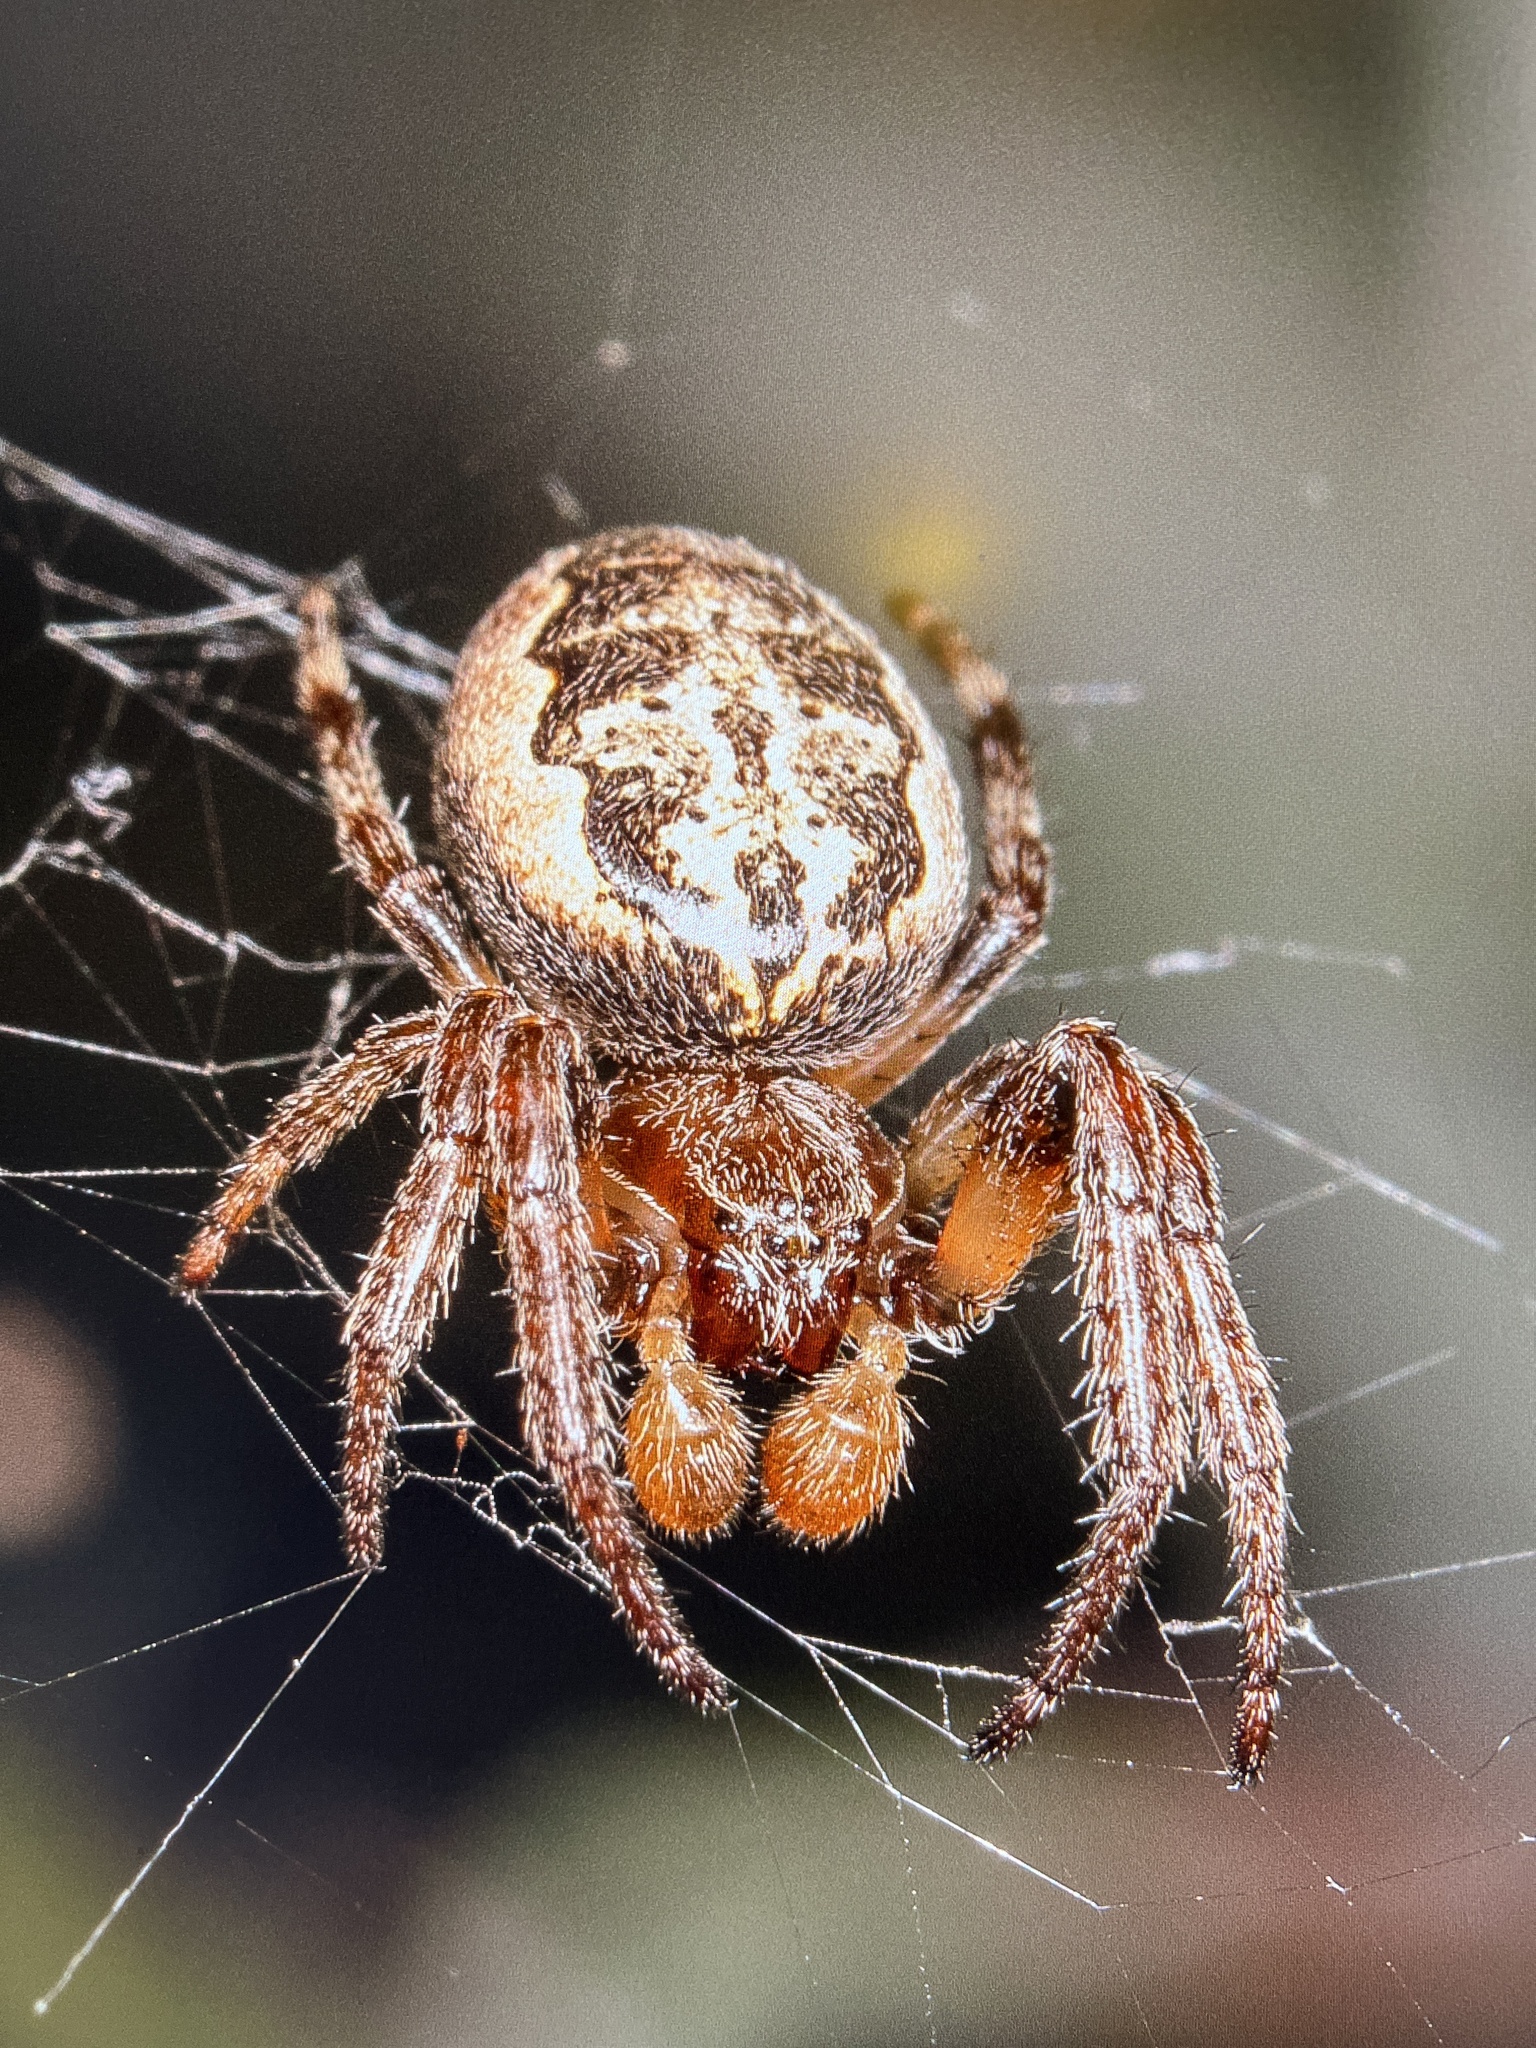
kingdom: Animalia
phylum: Arthropoda
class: Arachnida
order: Araneae
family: Araneidae
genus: Larinioides
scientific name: Larinioides cornutus
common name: Furrow orbweaver
